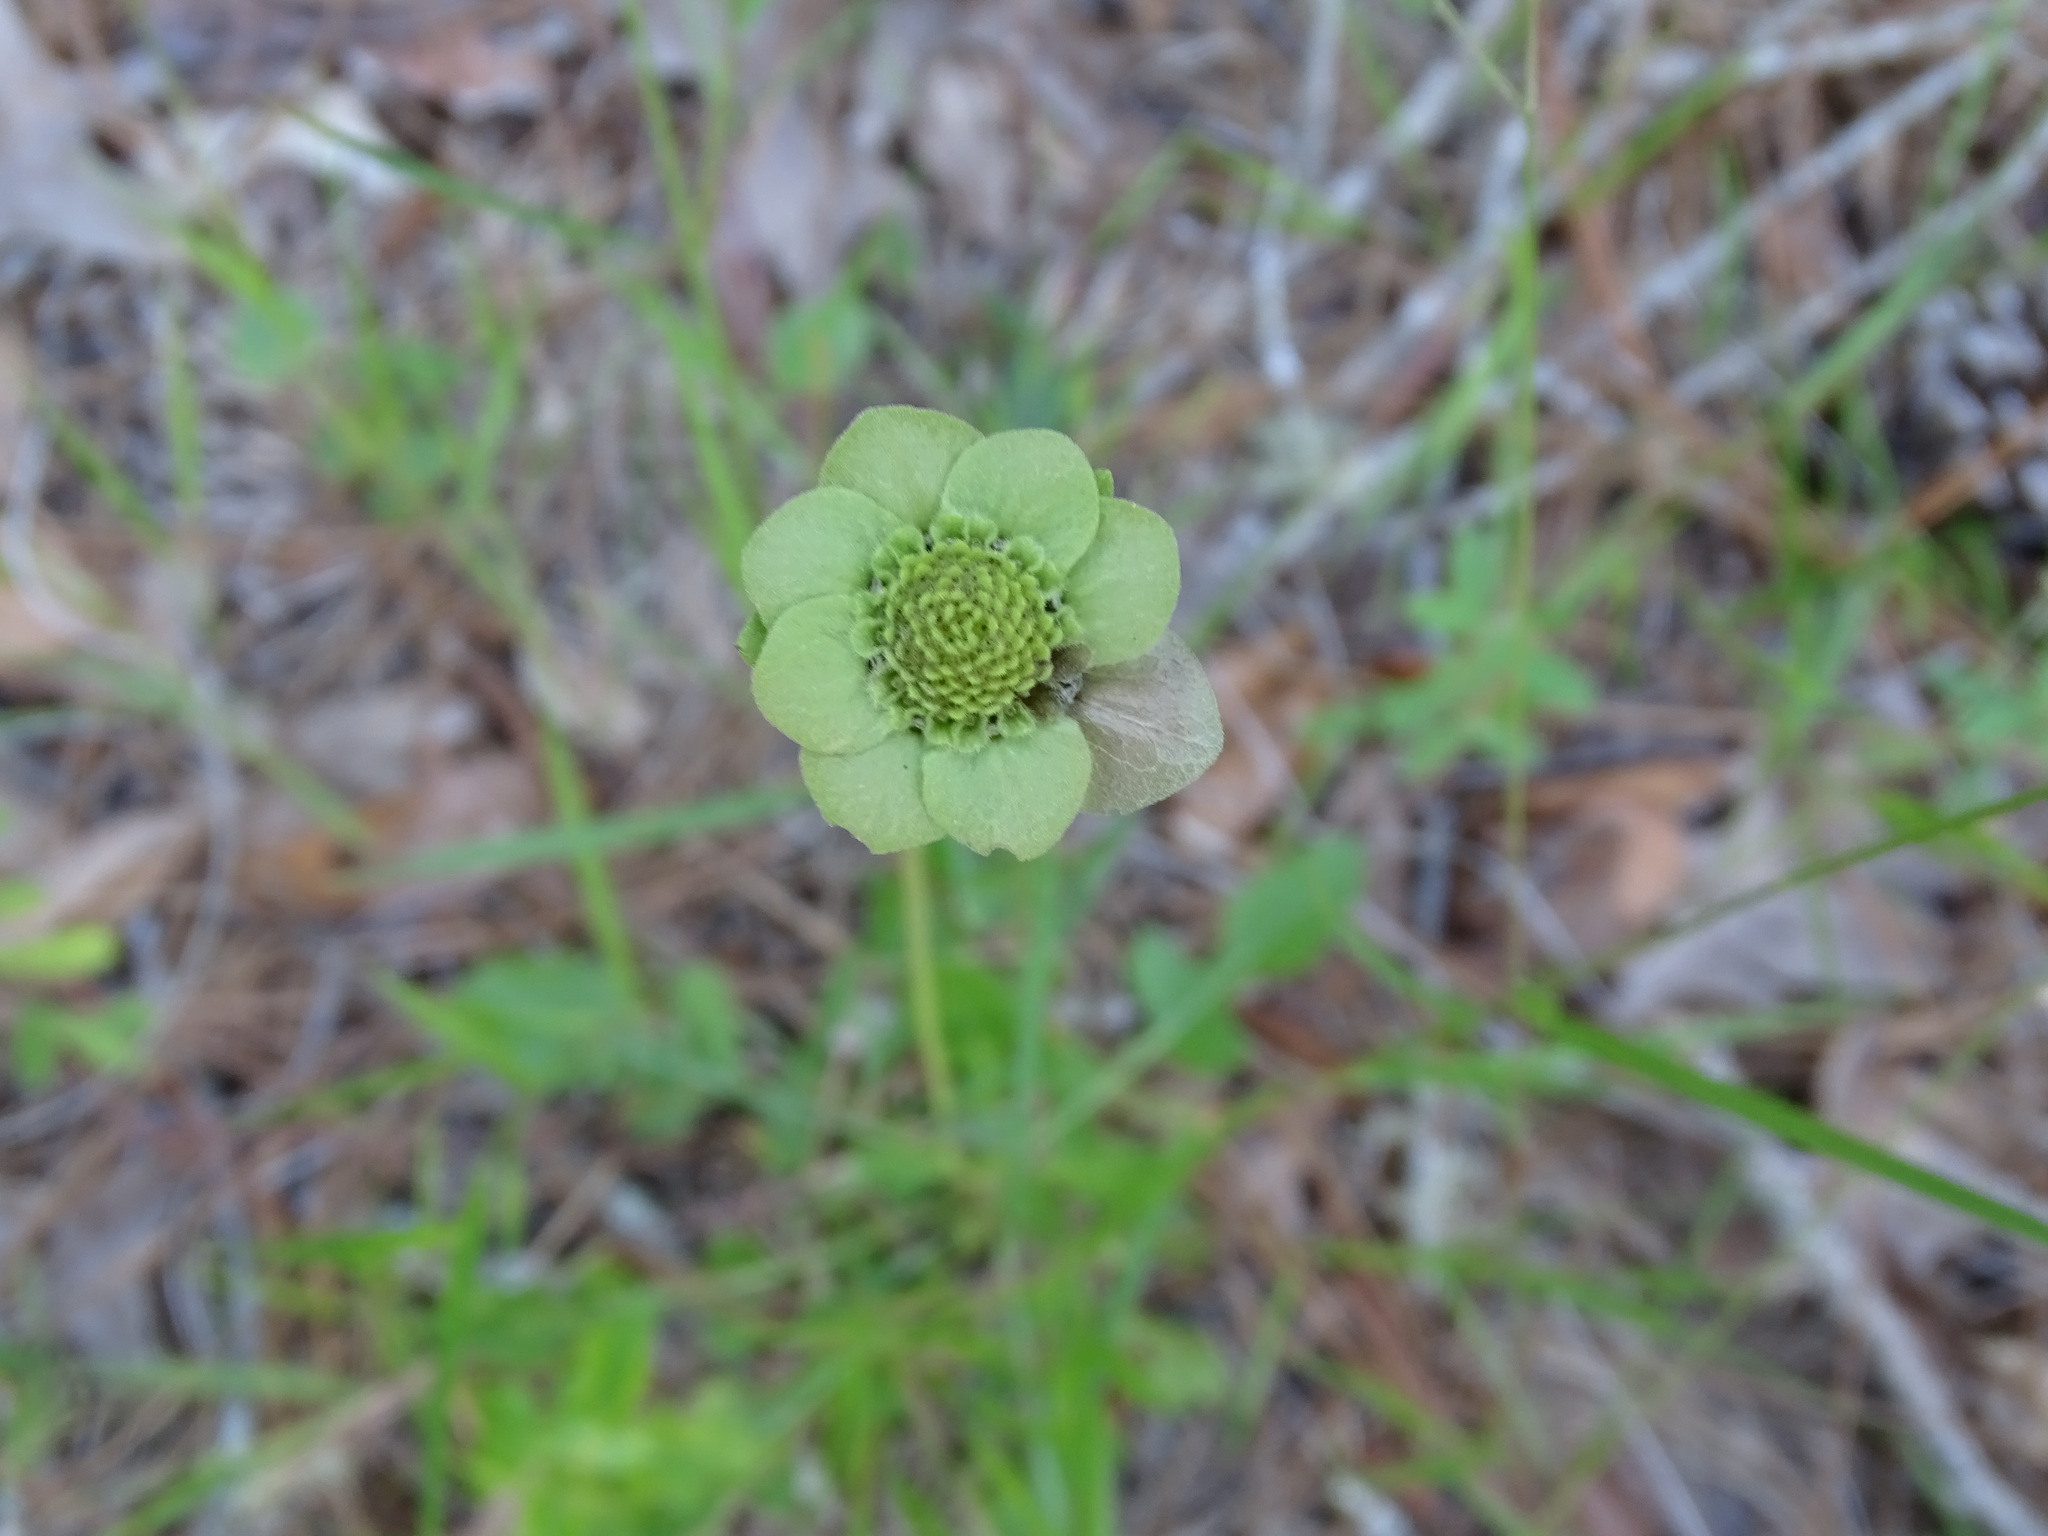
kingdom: Plantae
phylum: Tracheophyta
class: Magnoliopsida
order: Asterales
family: Asteraceae
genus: Berlandiera
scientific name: Berlandiera subacaulis
